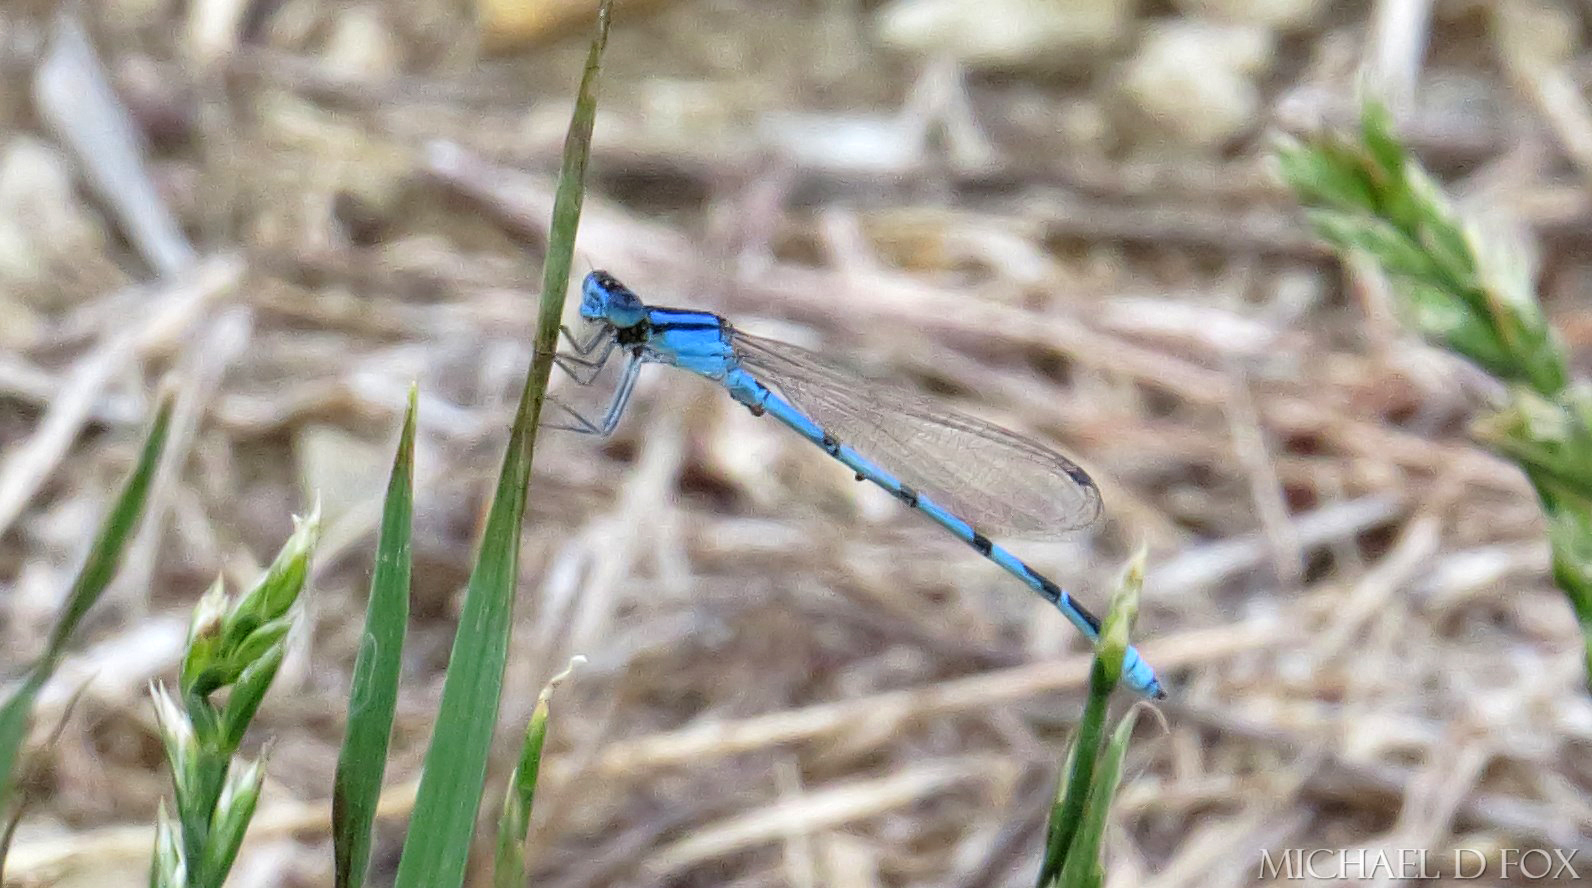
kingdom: Animalia
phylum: Arthropoda
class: Insecta
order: Odonata
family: Coenagrionidae
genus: Enallagma
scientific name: Enallagma civile
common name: Damselfly
